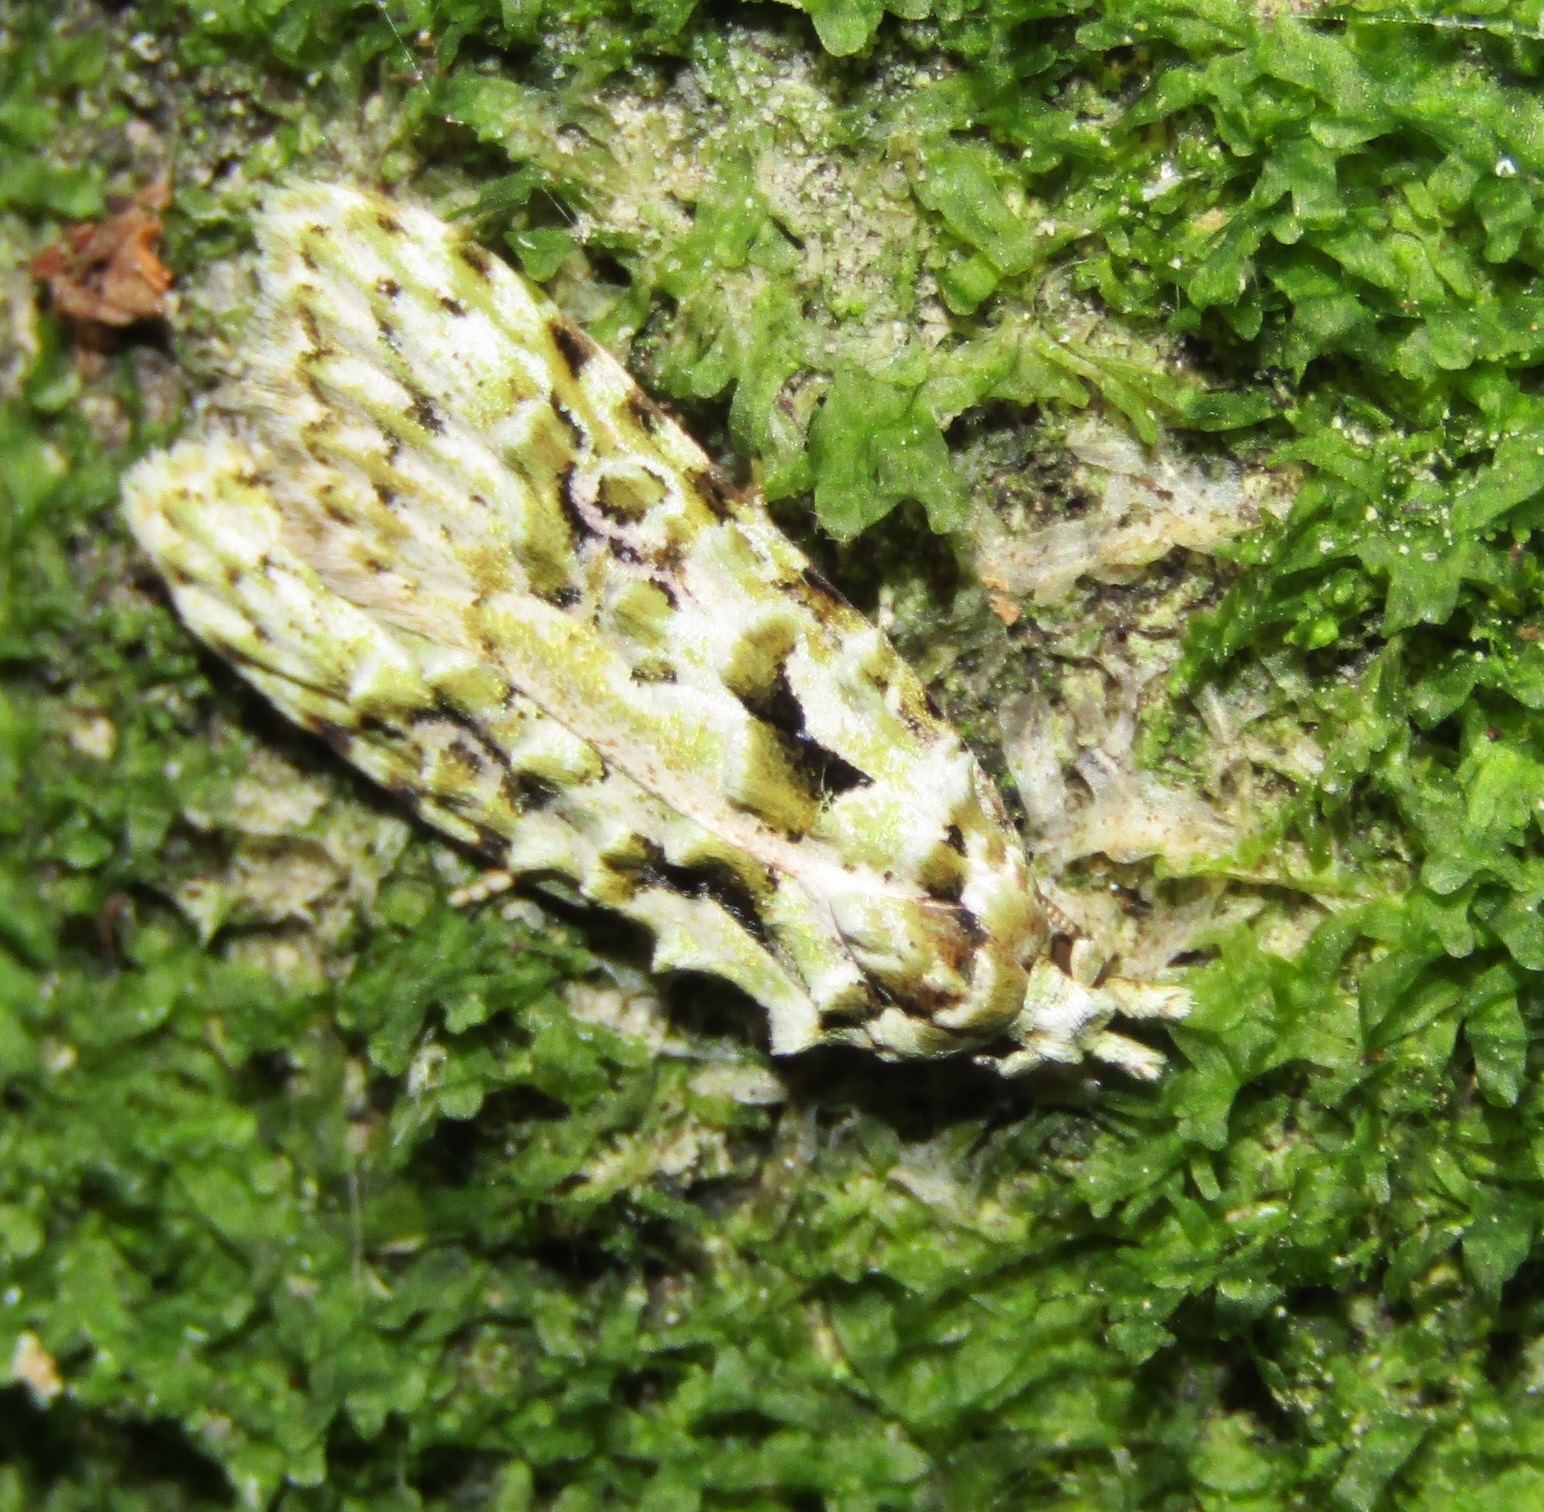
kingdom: Animalia
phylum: Arthropoda
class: Insecta
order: Lepidoptera
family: Carposinidae
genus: Carposina
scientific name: Carposina Heterocrossa eriphylla
